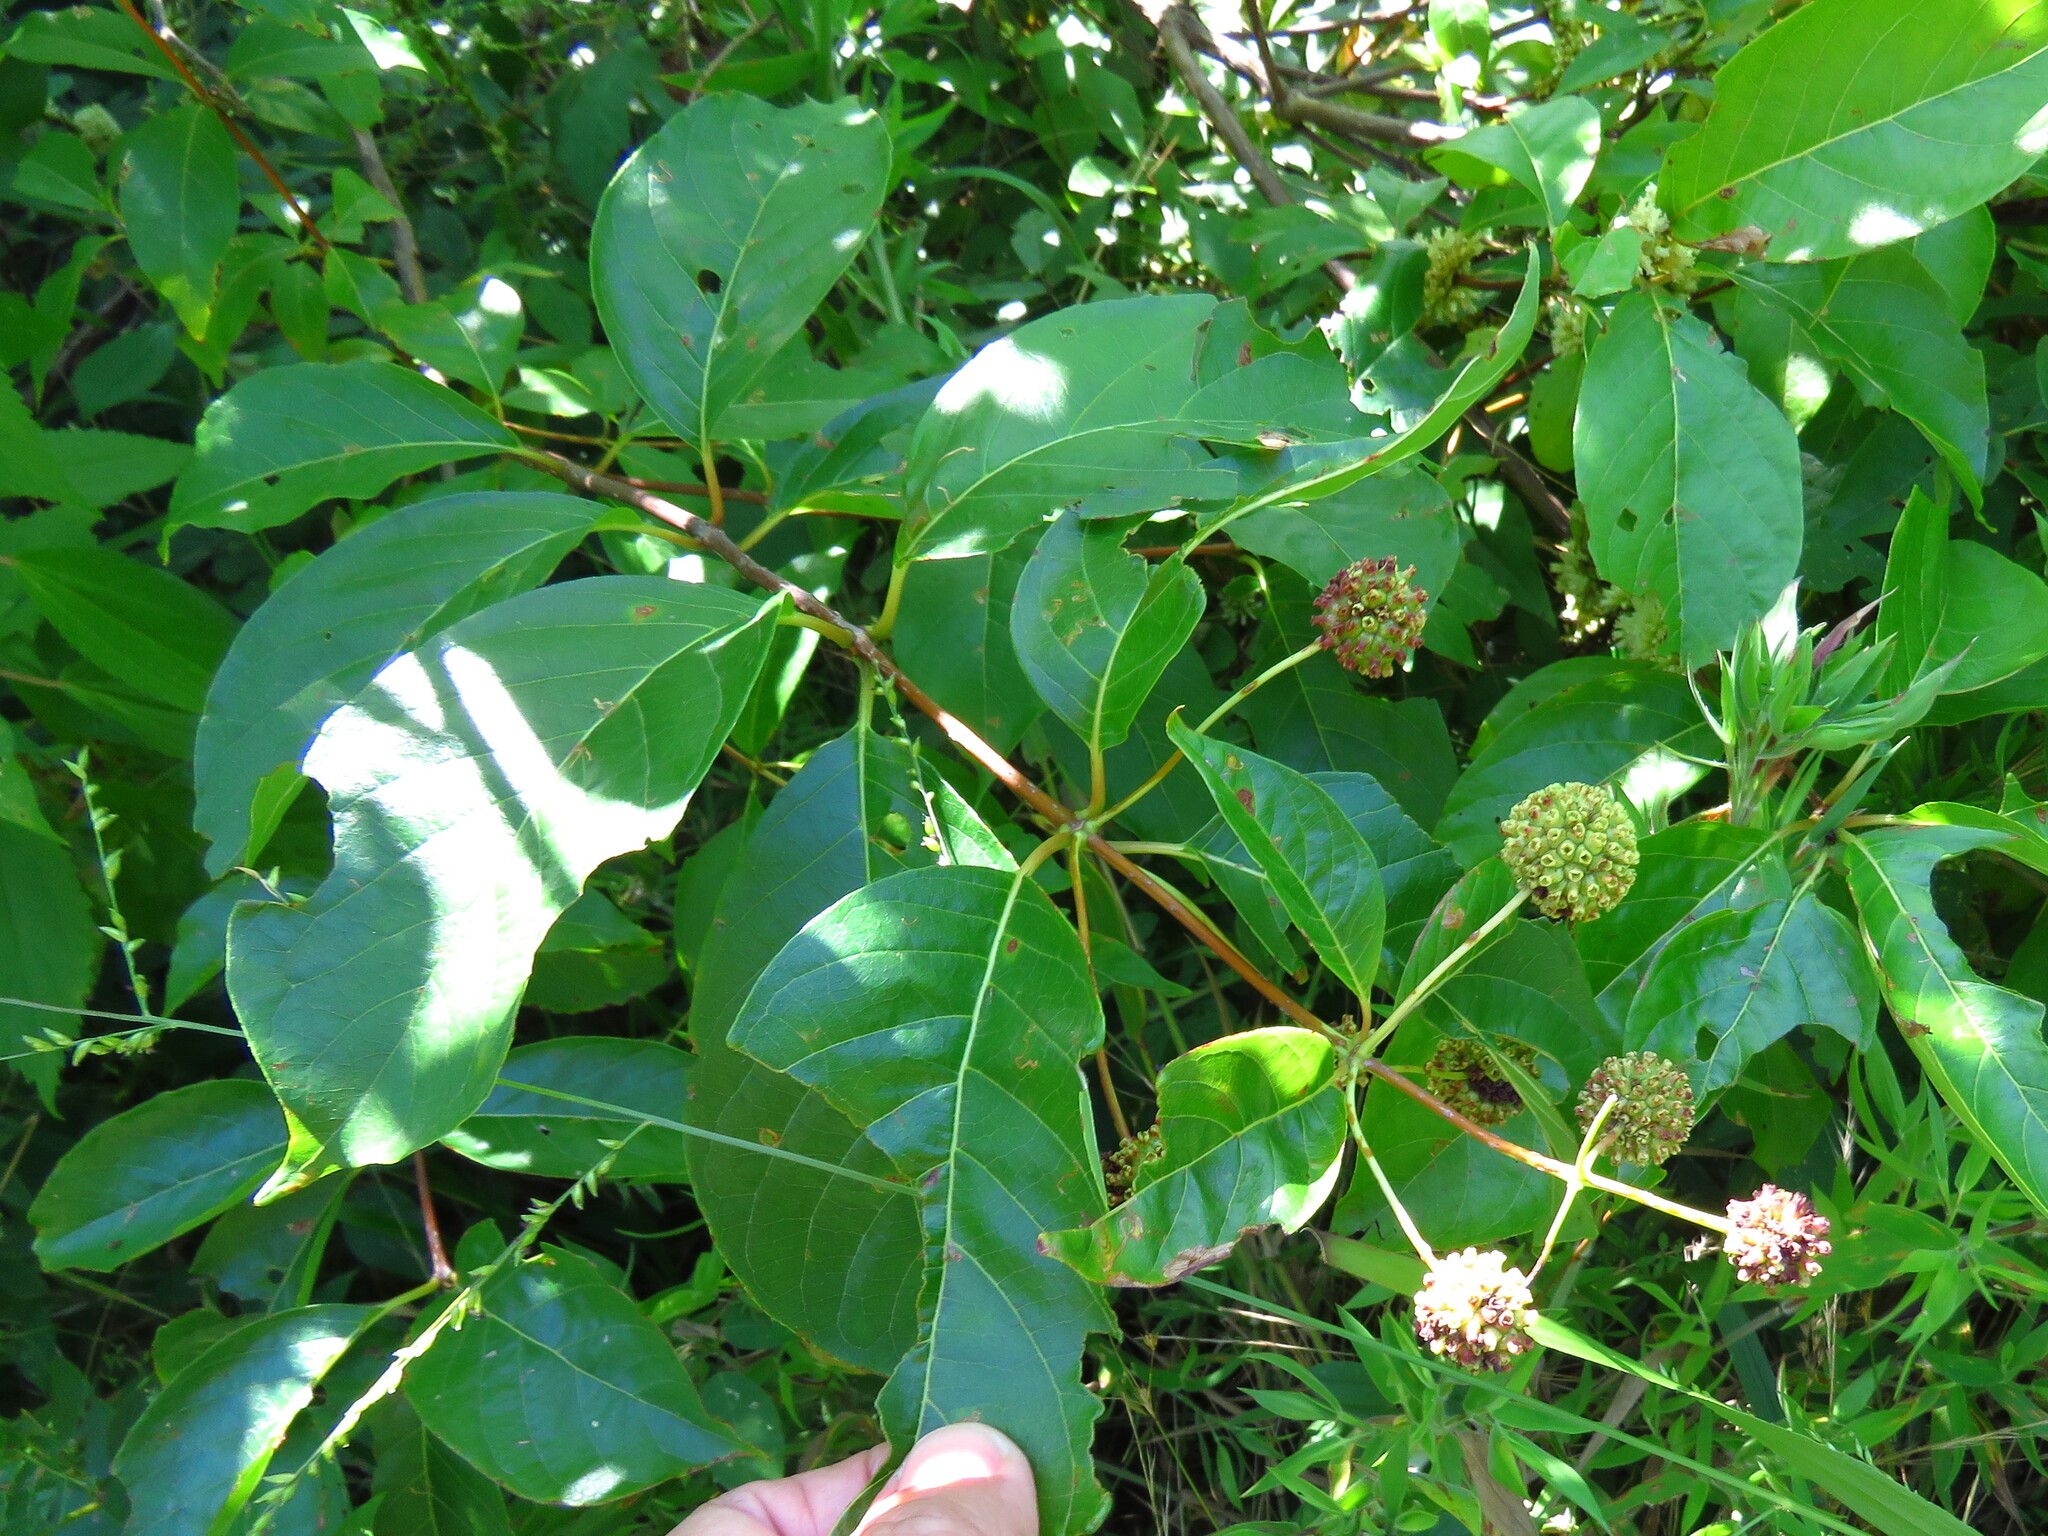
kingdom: Plantae
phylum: Tracheophyta
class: Magnoliopsida
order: Gentianales
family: Rubiaceae
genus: Cephalanthus
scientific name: Cephalanthus occidentalis
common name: Button-willow
